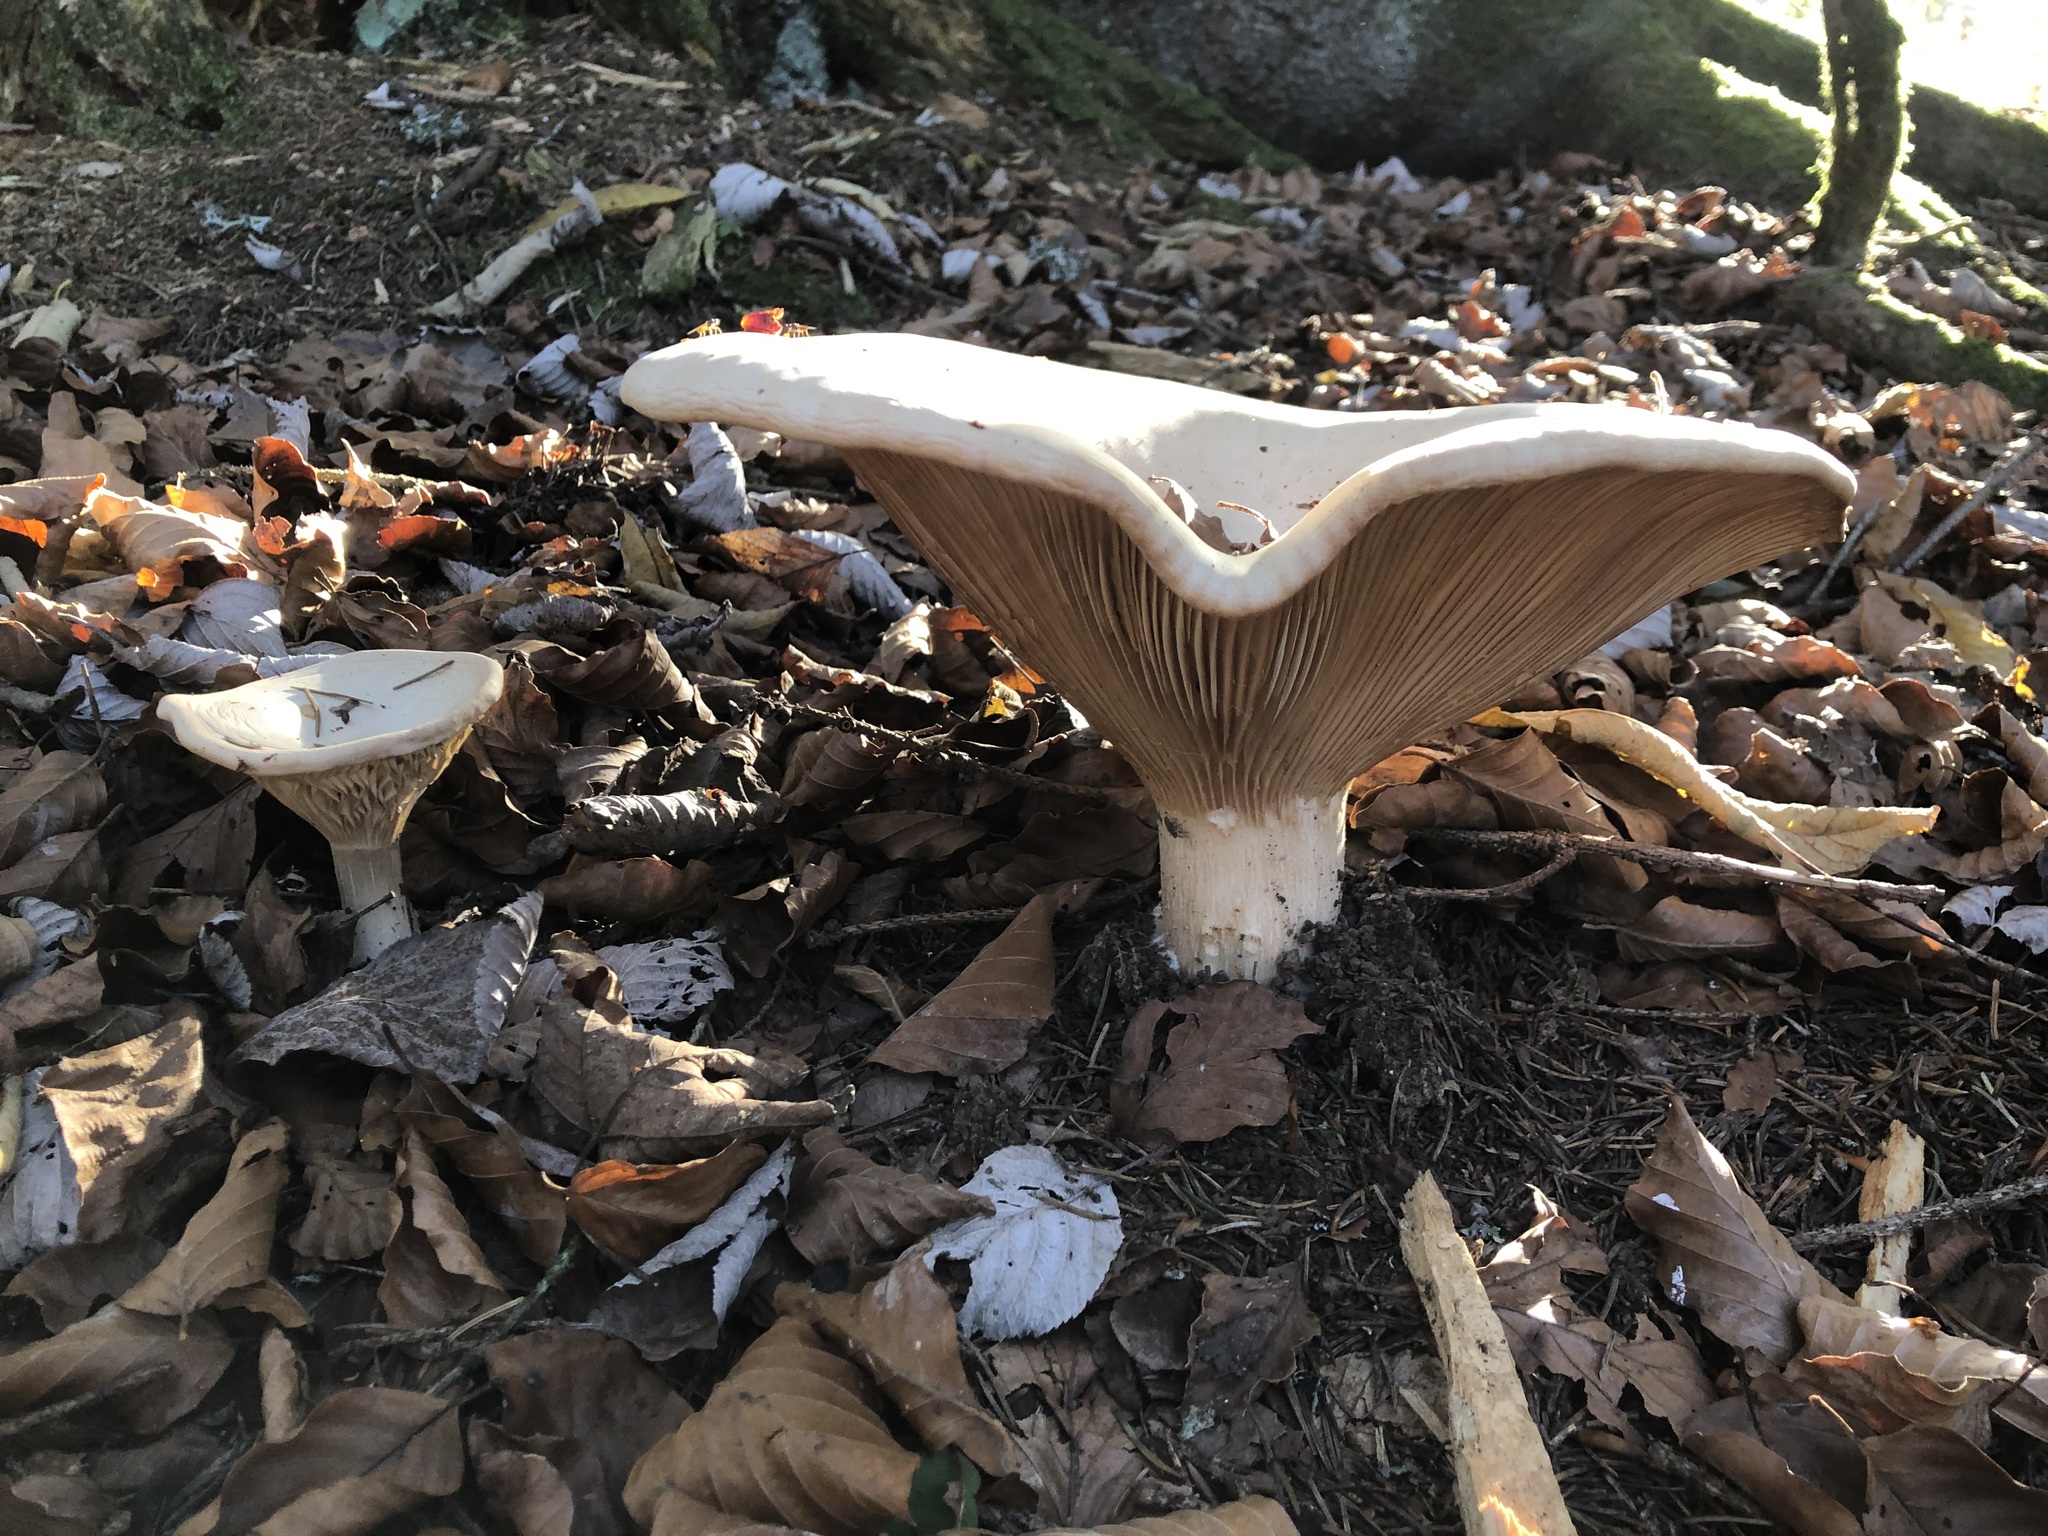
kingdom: Fungi
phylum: Basidiomycota
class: Agaricomycetes
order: Agaricales
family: Tricholomataceae
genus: Infundibulicybe
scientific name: Infundibulicybe geotropa
